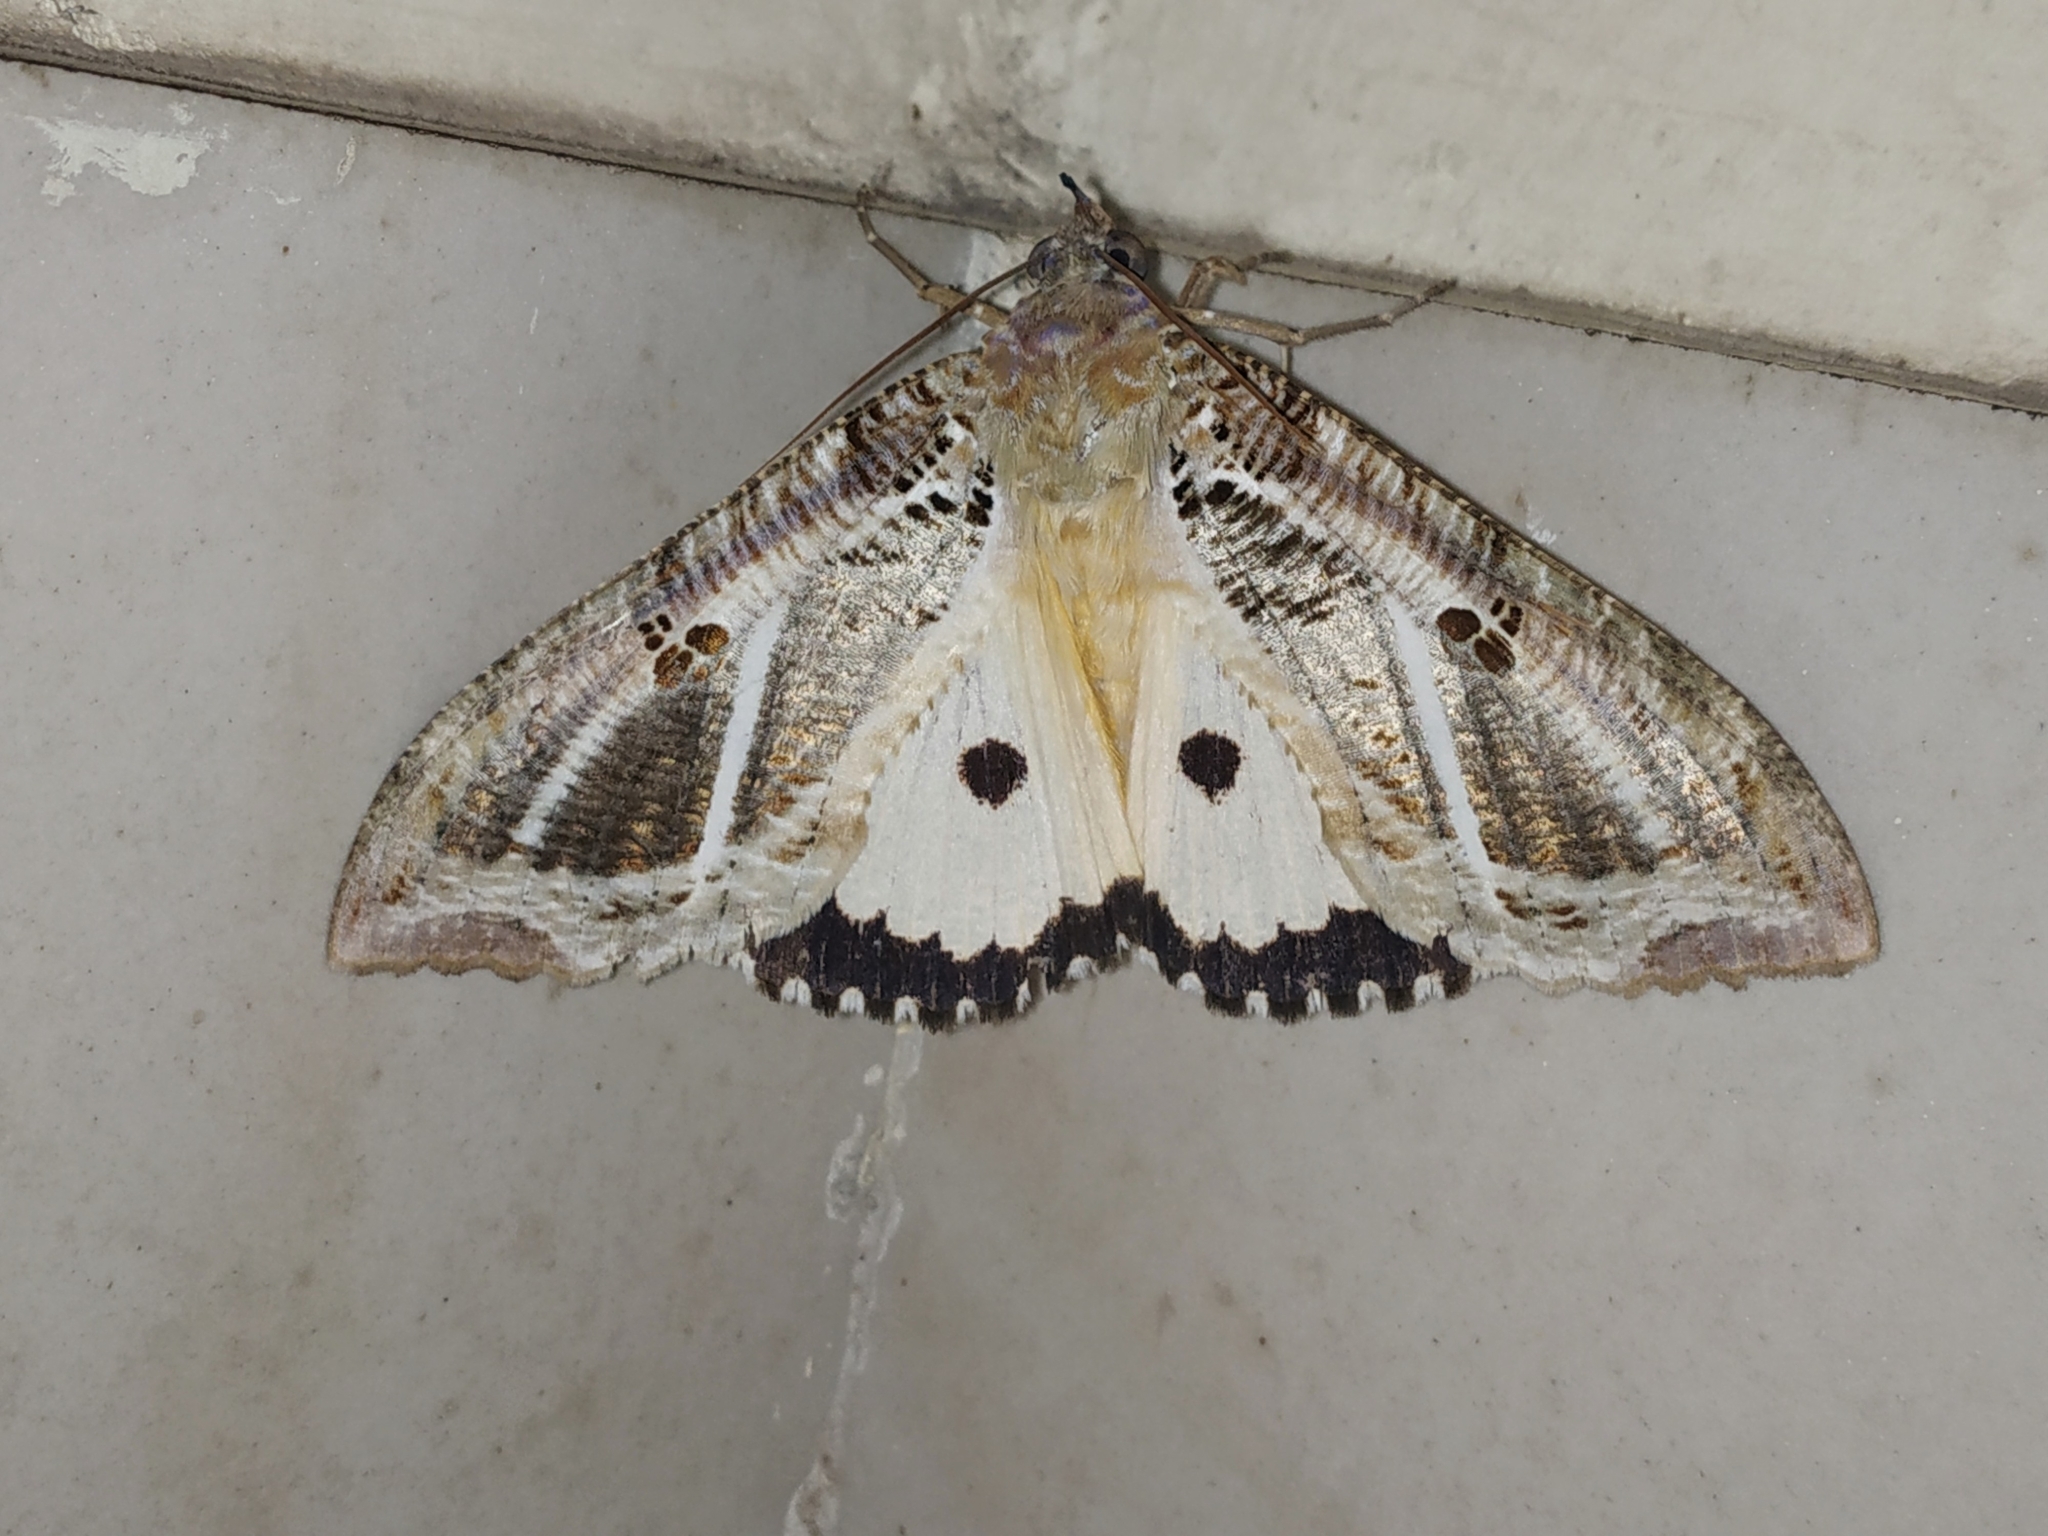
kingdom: Animalia
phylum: Arthropoda
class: Insecta
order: Lepidoptera
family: Erebidae
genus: Eudocima
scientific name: Eudocima materna
